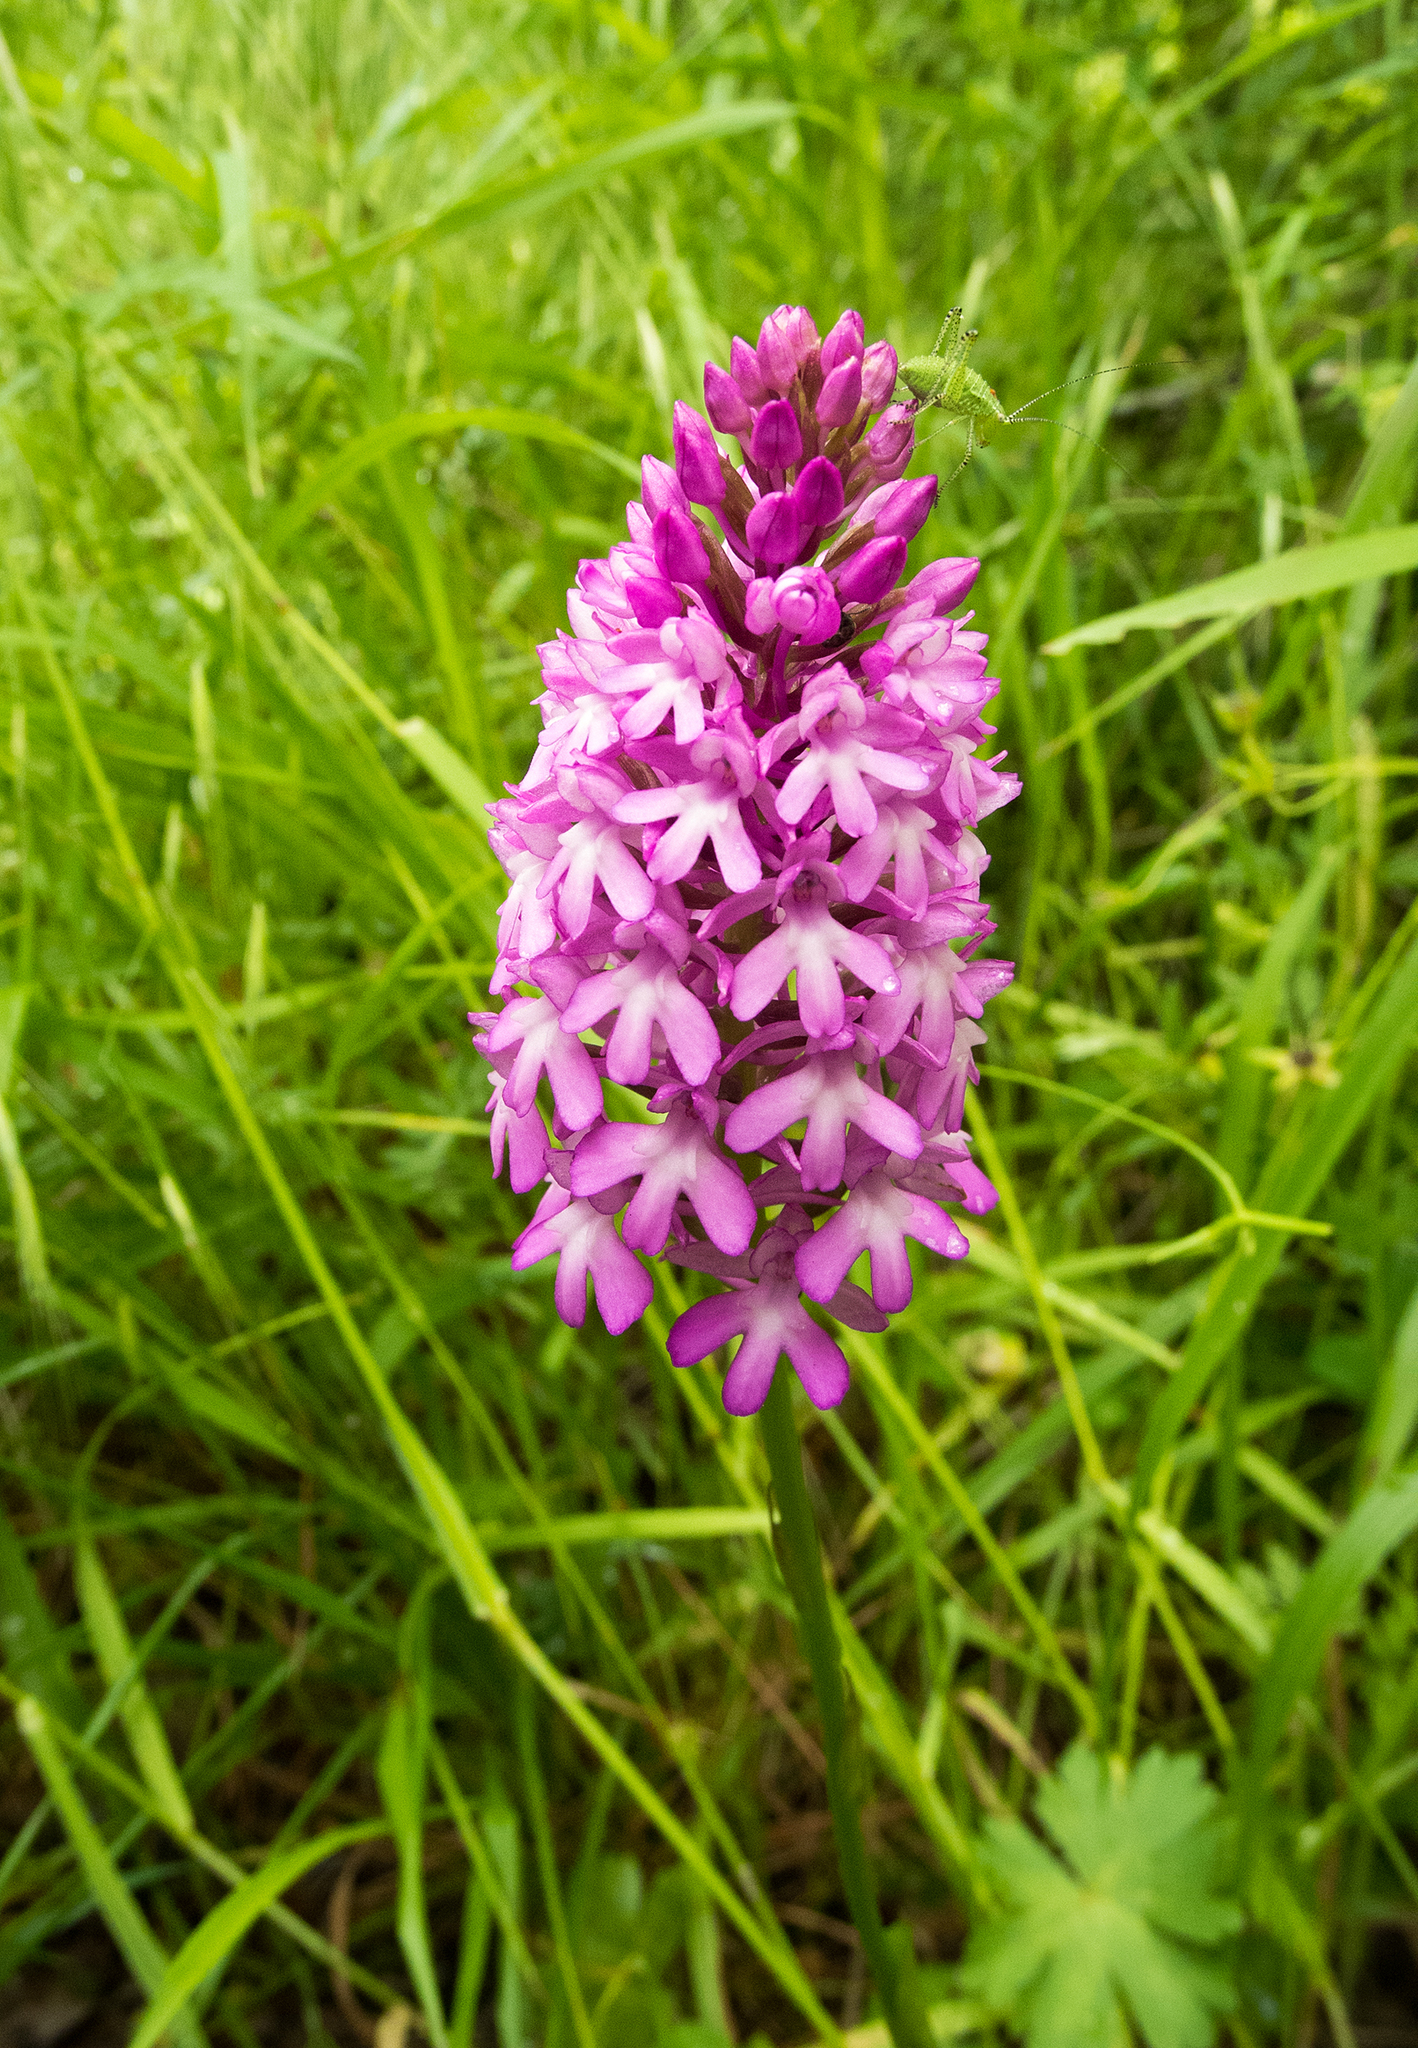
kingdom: Plantae
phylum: Tracheophyta
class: Liliopsida
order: Asparagales
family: Orchidaceae
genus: Anacamptis
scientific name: Anacamptis pyramidalis
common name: Pyramidal orchid
